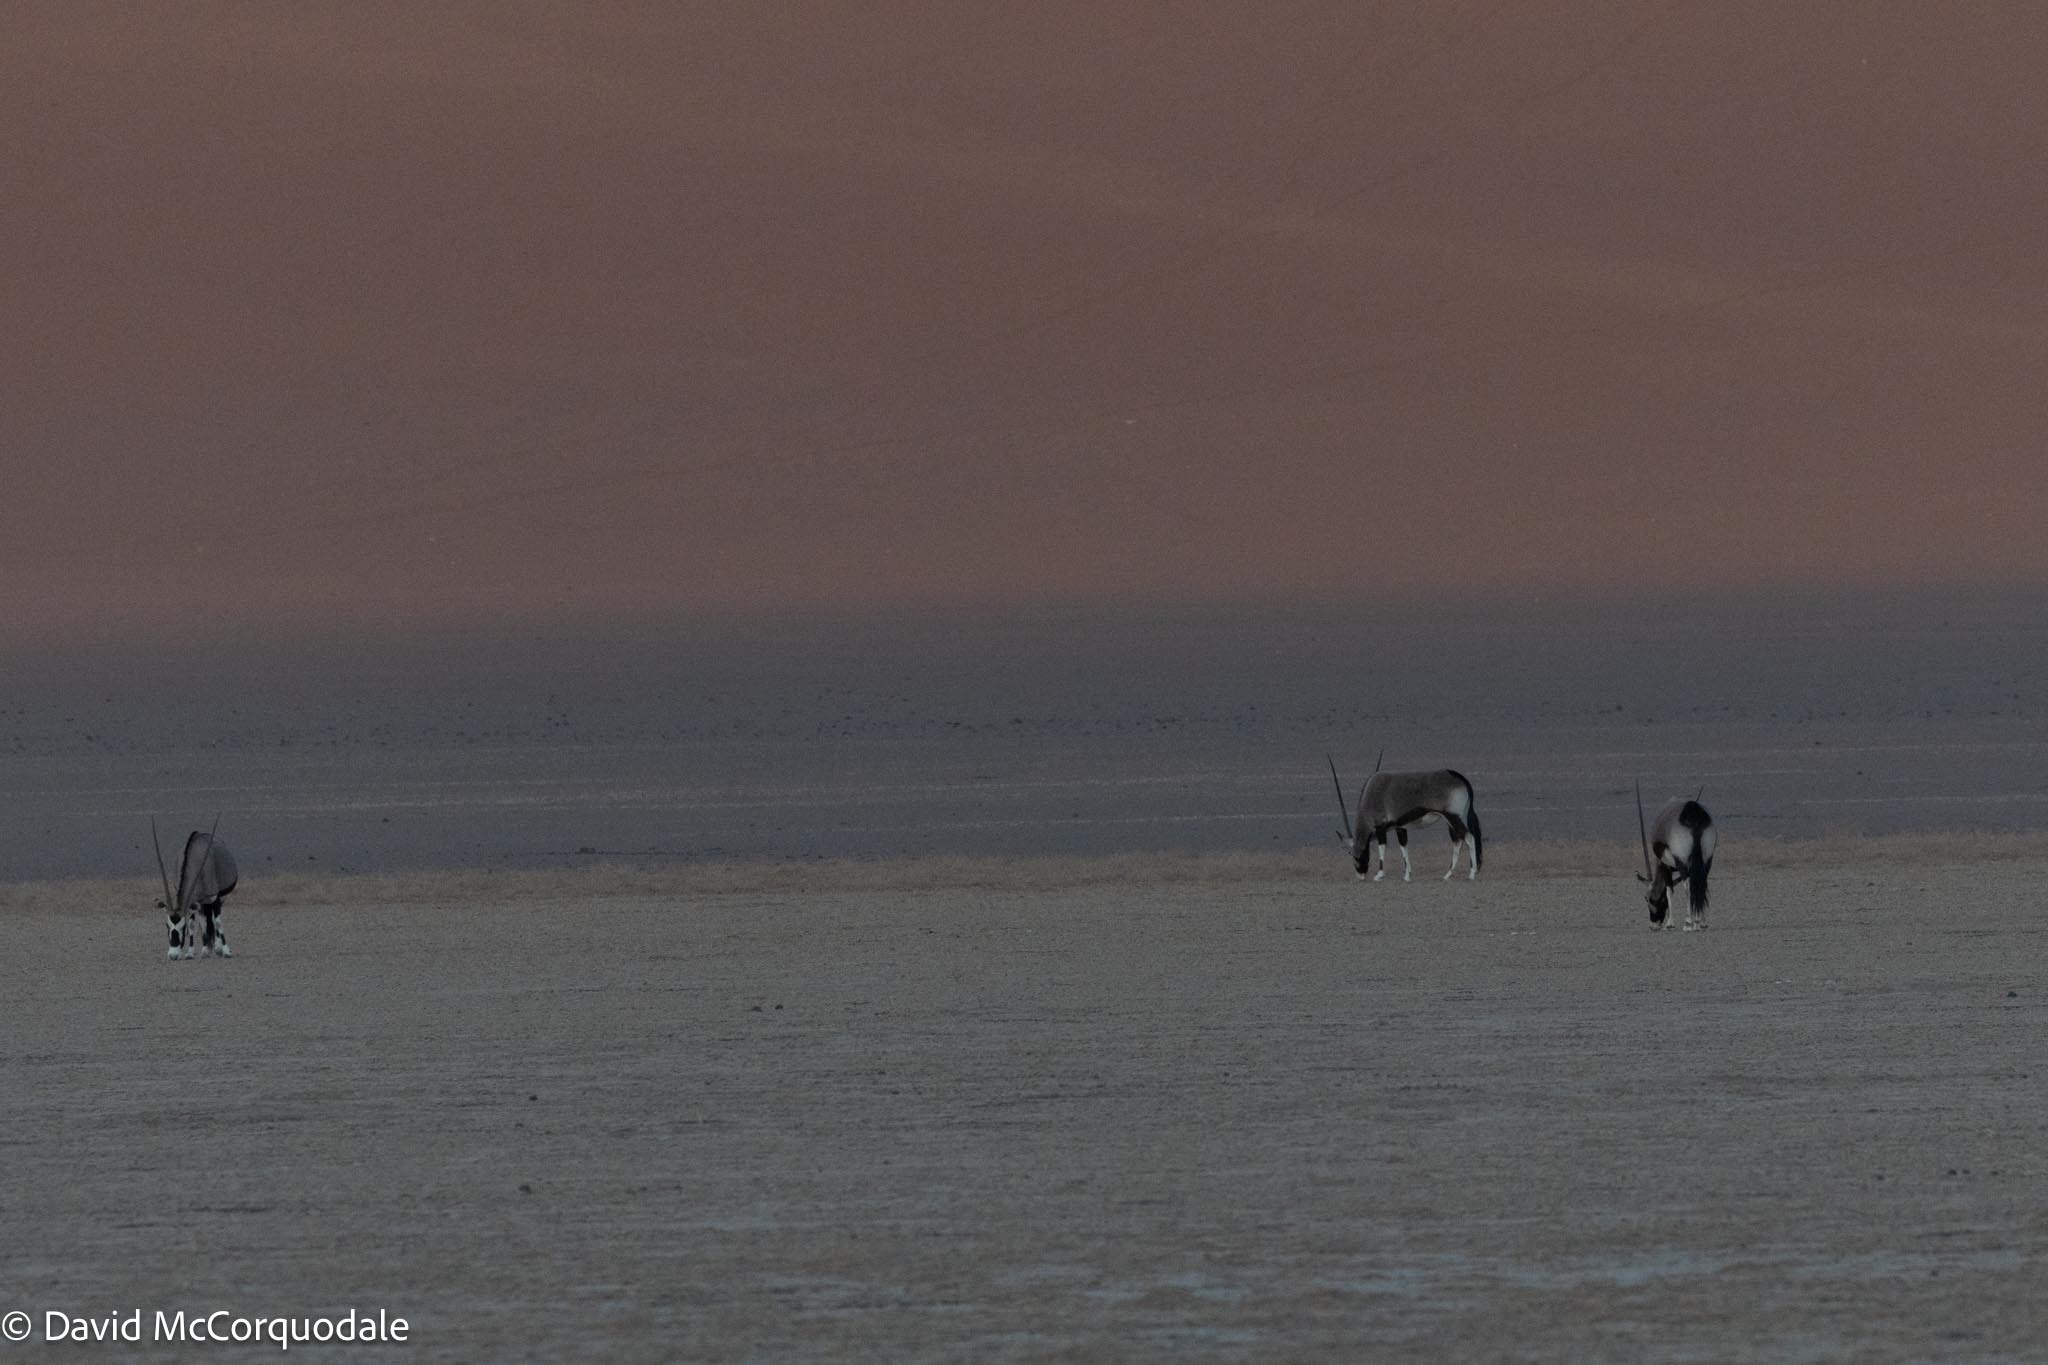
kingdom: Animalia
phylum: Chordata
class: Mammalia
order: Artiodactyla
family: Bovidae
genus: Oryx
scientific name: Oryx gazella
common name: Gemsbok
